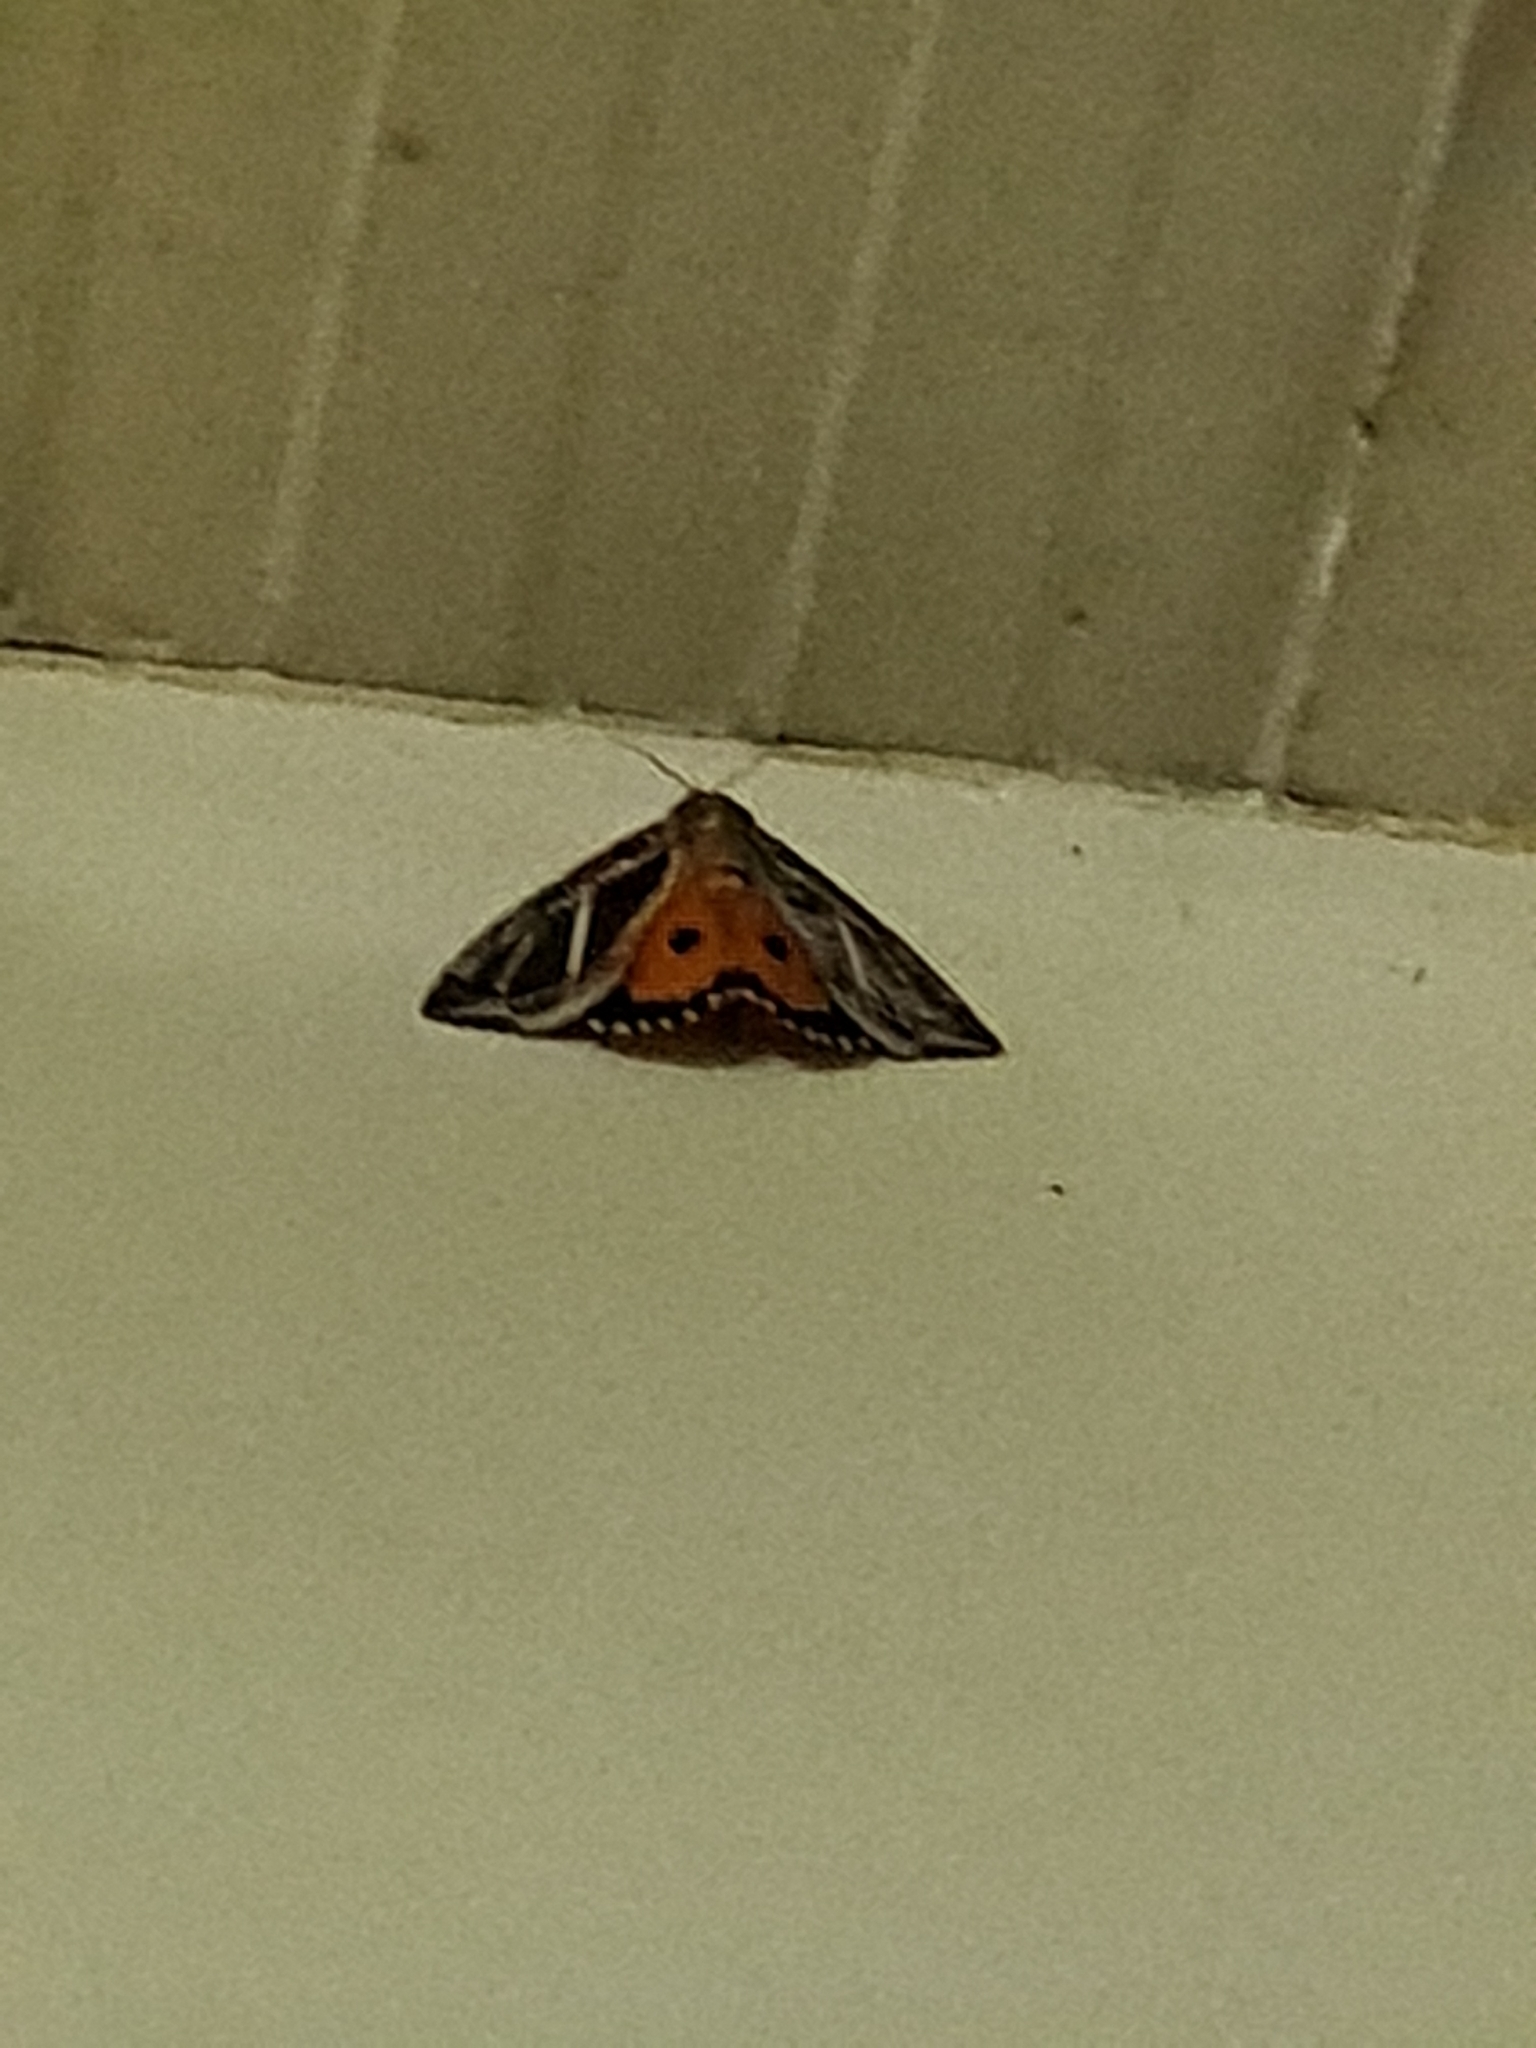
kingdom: Animalia
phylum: Arthropoda
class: Insecta
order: Lepidoptera
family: Erebidae
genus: Eudocima
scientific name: Eudocima materna
